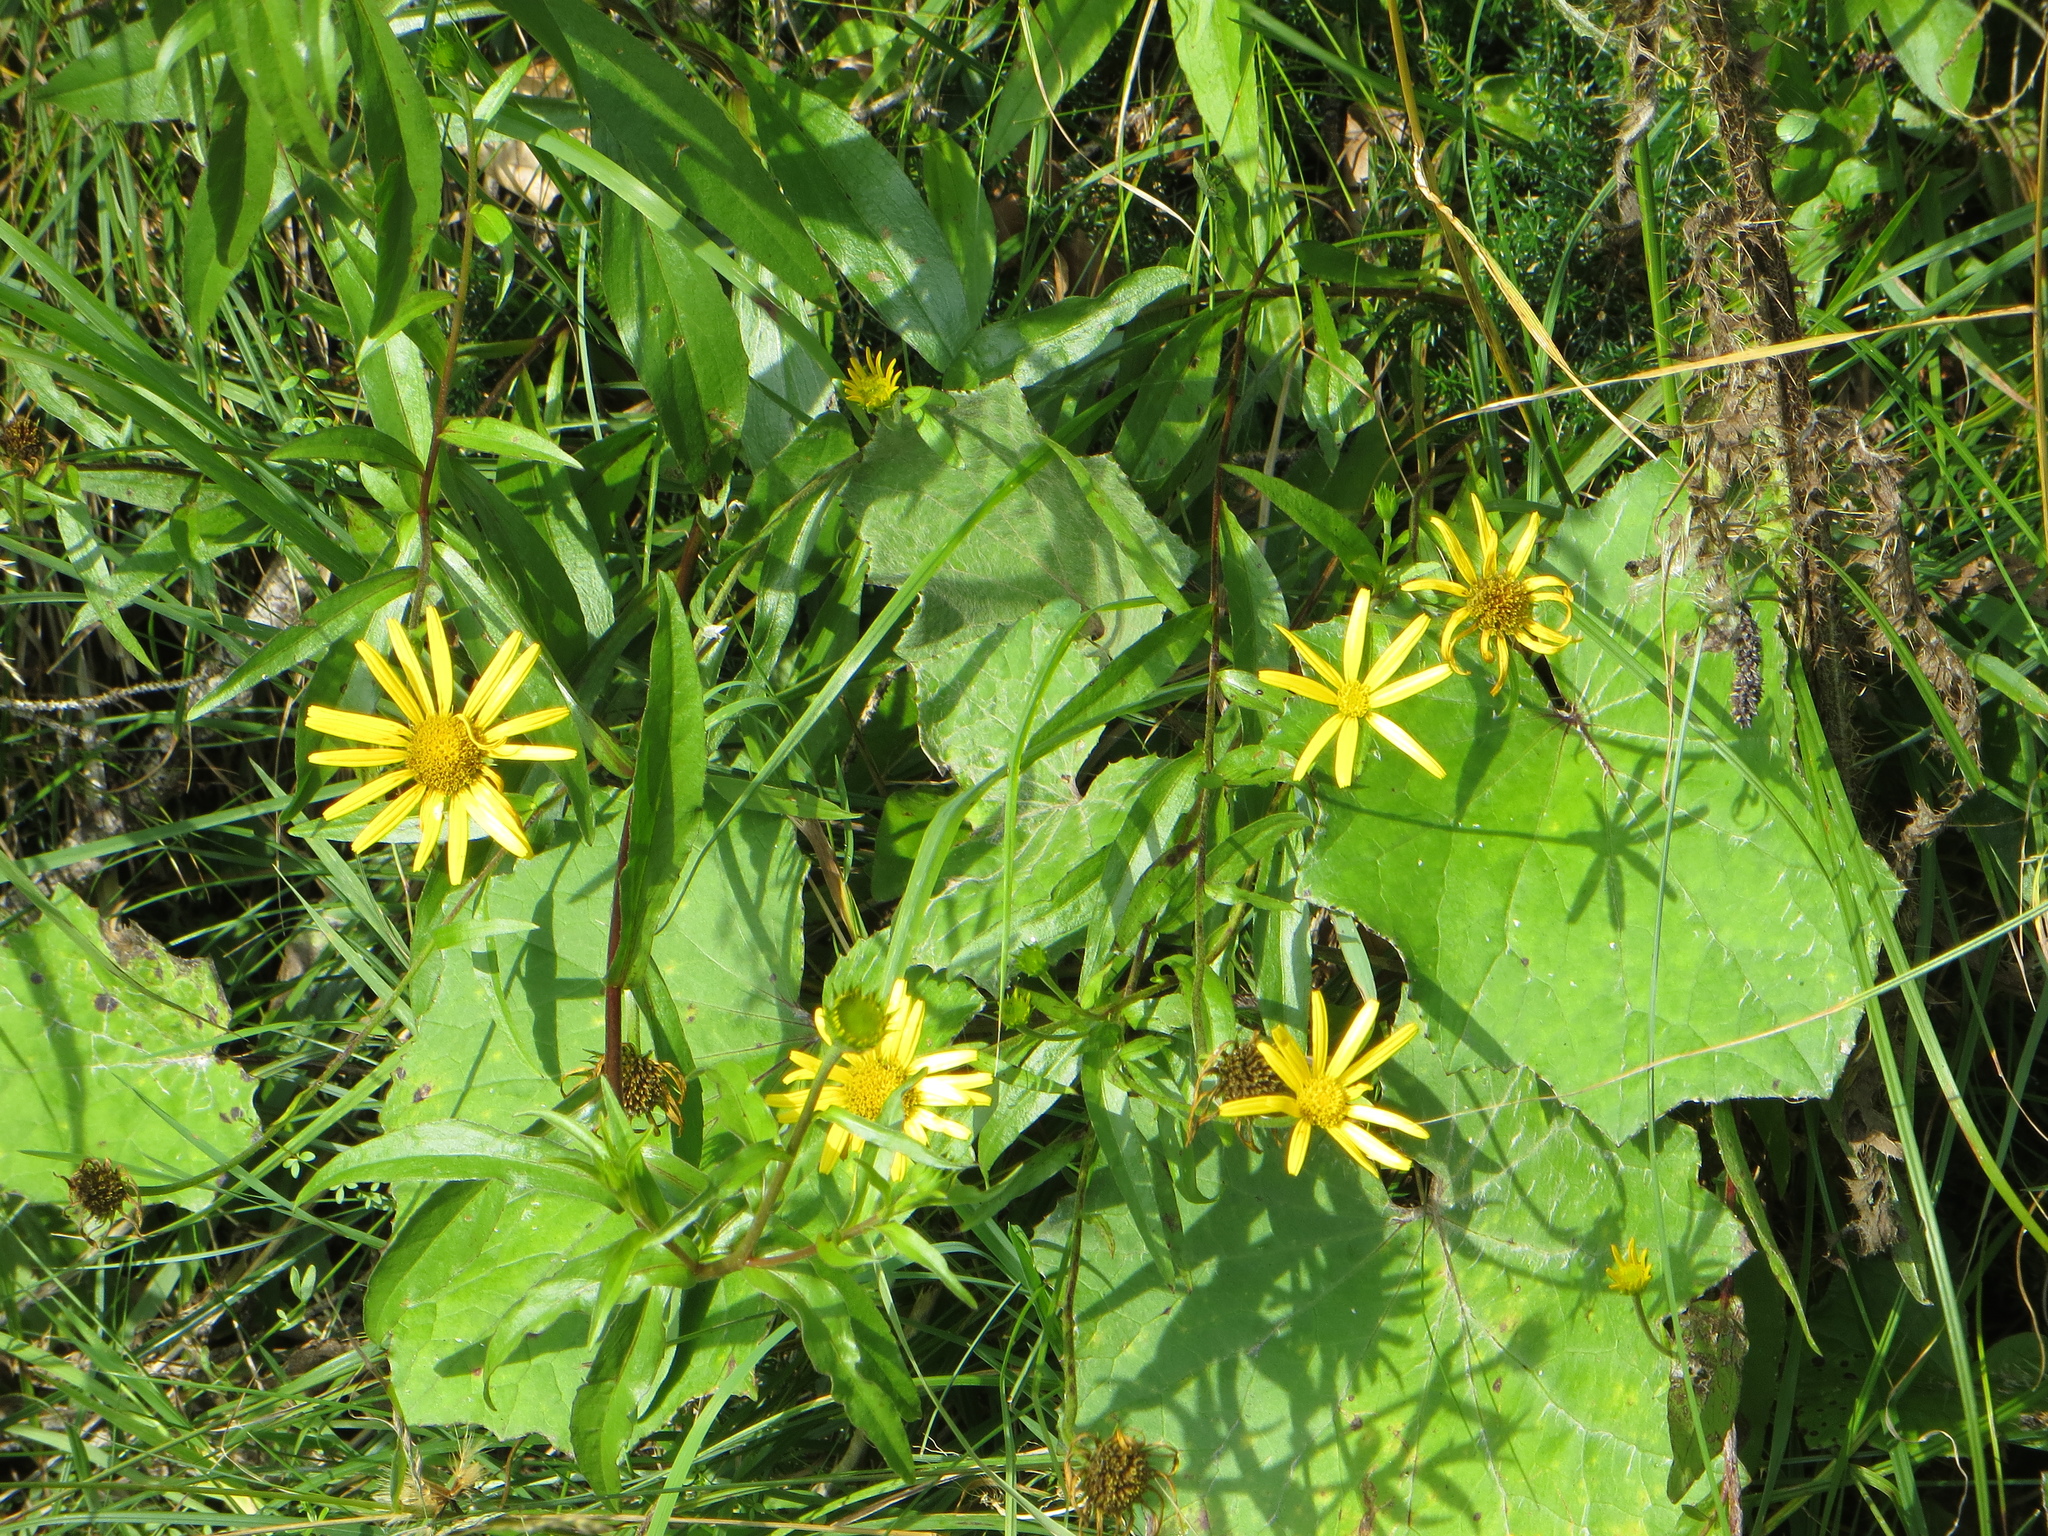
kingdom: Plantae
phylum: Tracheophyta
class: Magnoliopsida
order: Asterales
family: Asteraceae
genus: Buphthalmum
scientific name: Buphthalmum salicifolium
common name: Willow-leaved yellow-oxeye
